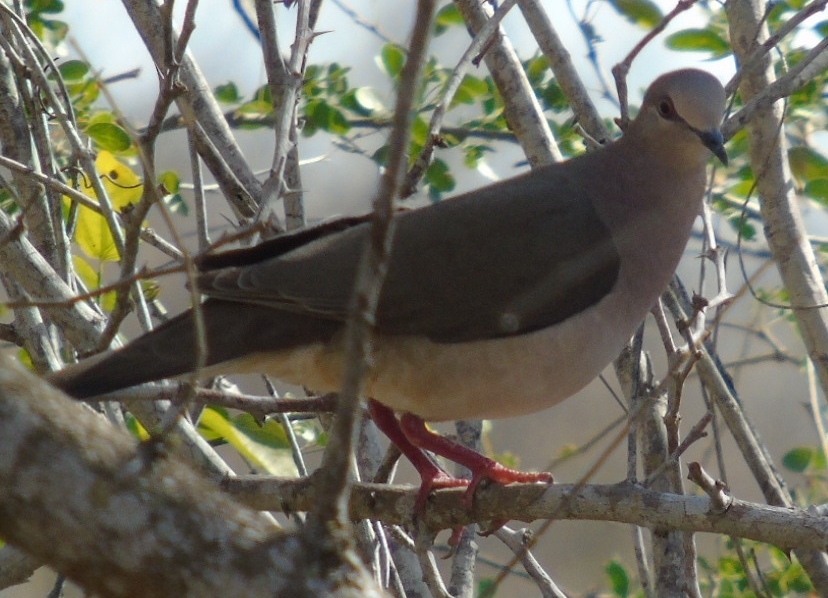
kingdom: Animalia
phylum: Chordata
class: Aves
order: Columbiformes
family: Columbidae
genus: Leptotila
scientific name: Leptotila verreauxi
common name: White-tipped dove
